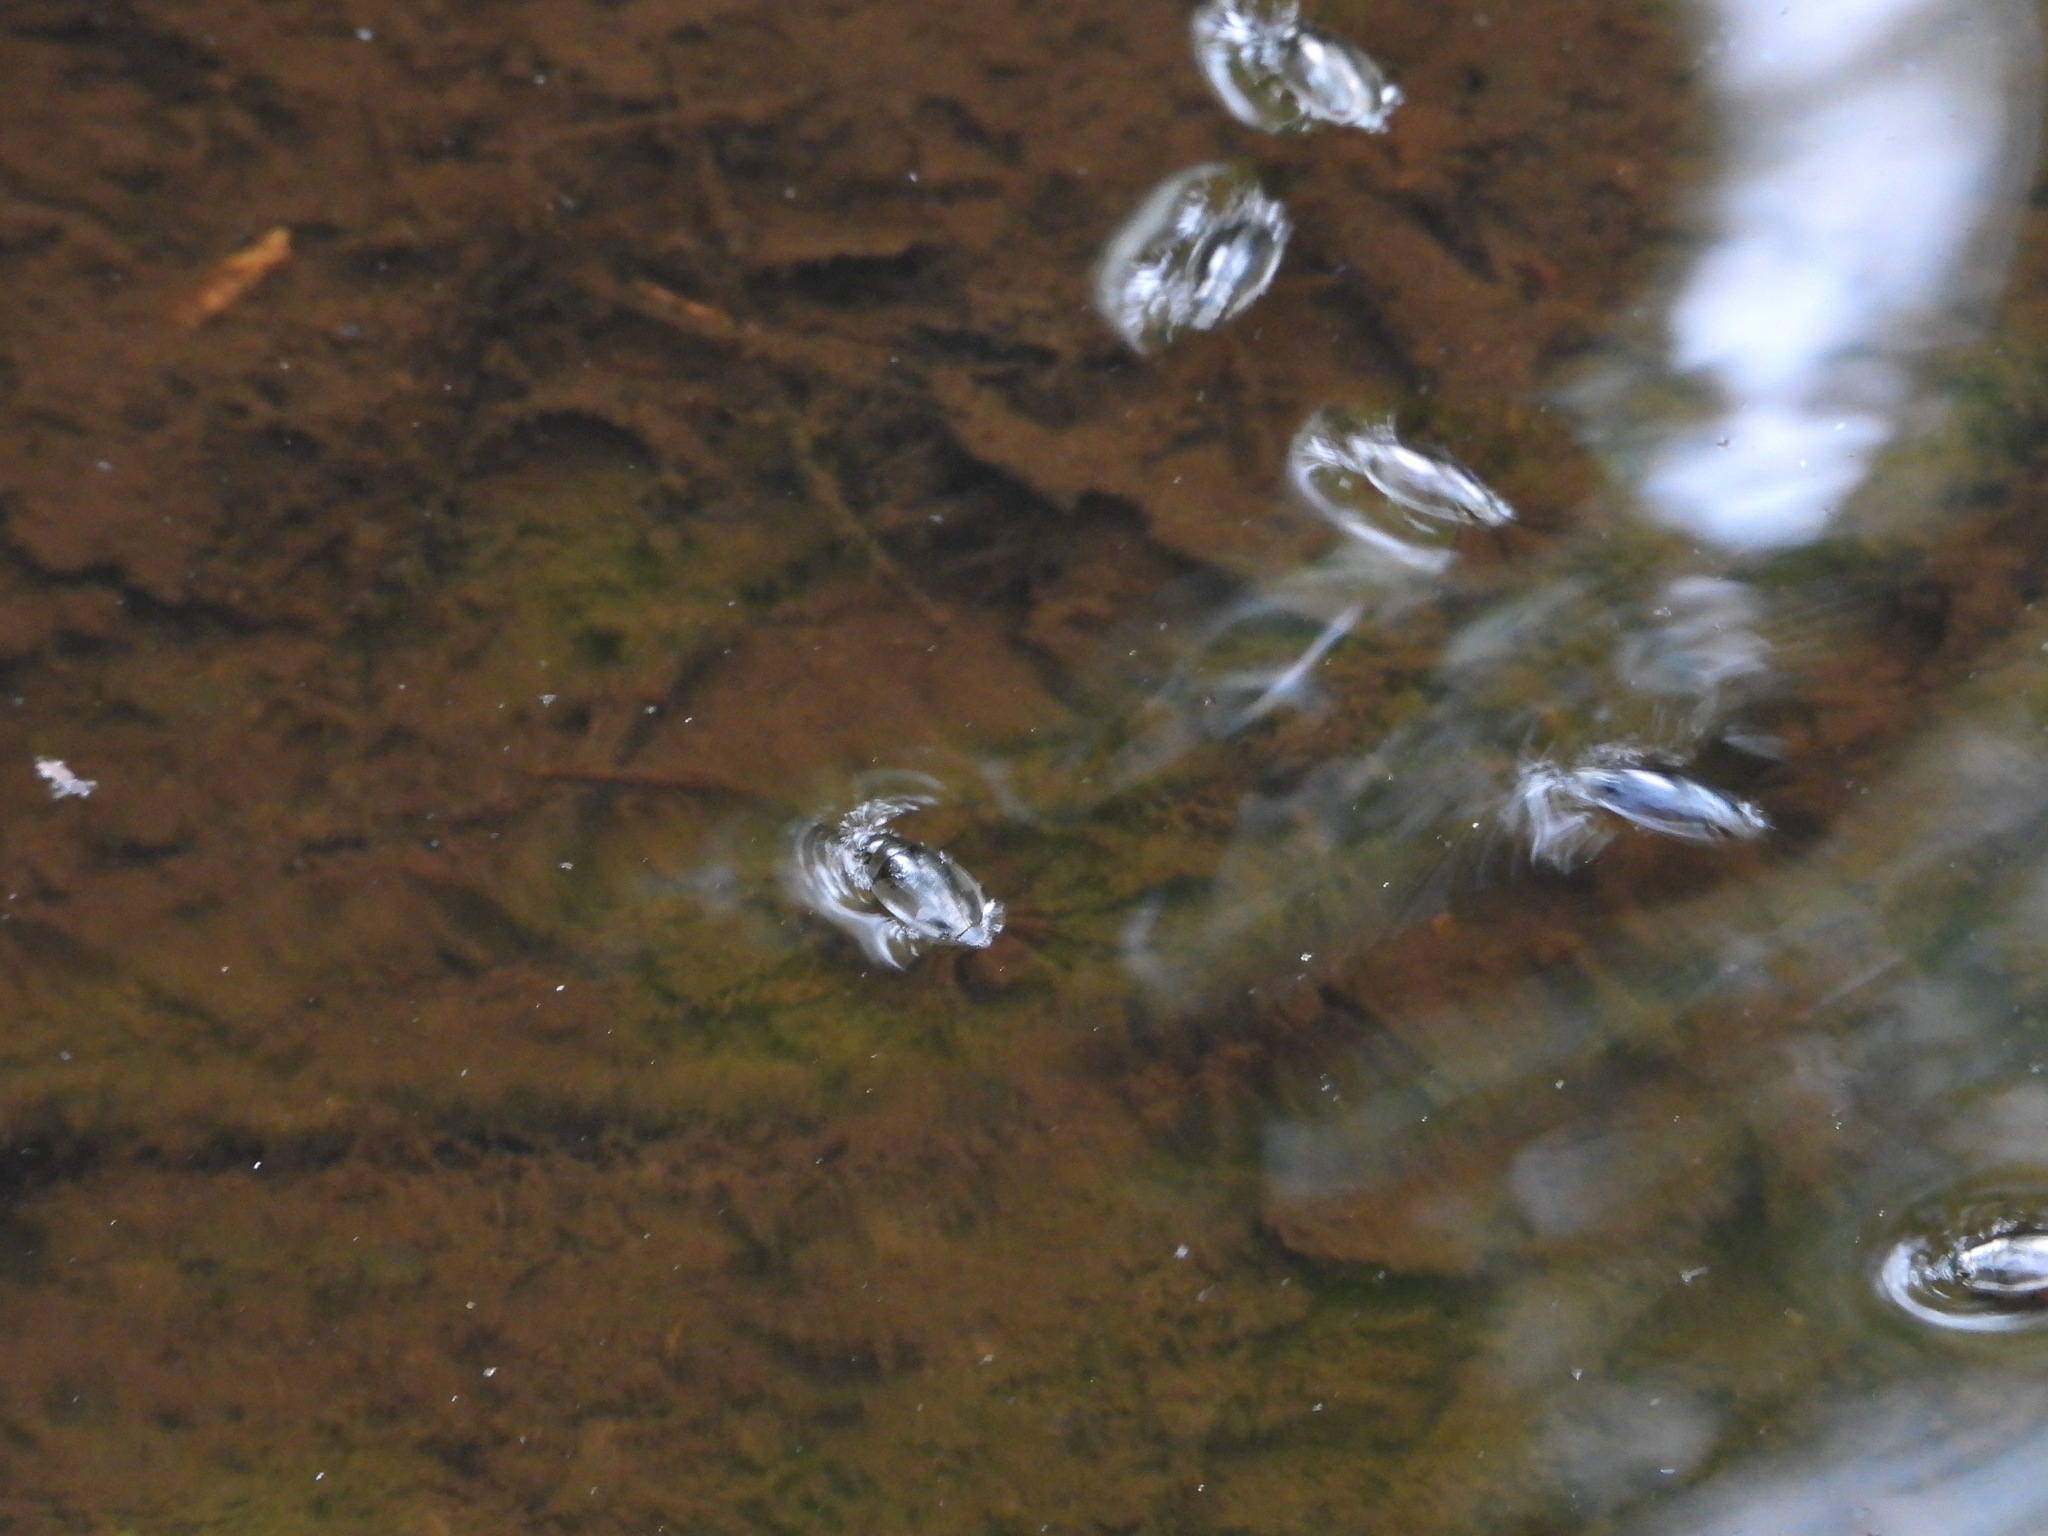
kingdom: Animalia
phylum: Arthropoda
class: Insecta
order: Coleoptera
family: Gyrinidae
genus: Dineutus
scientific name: Dineutus
